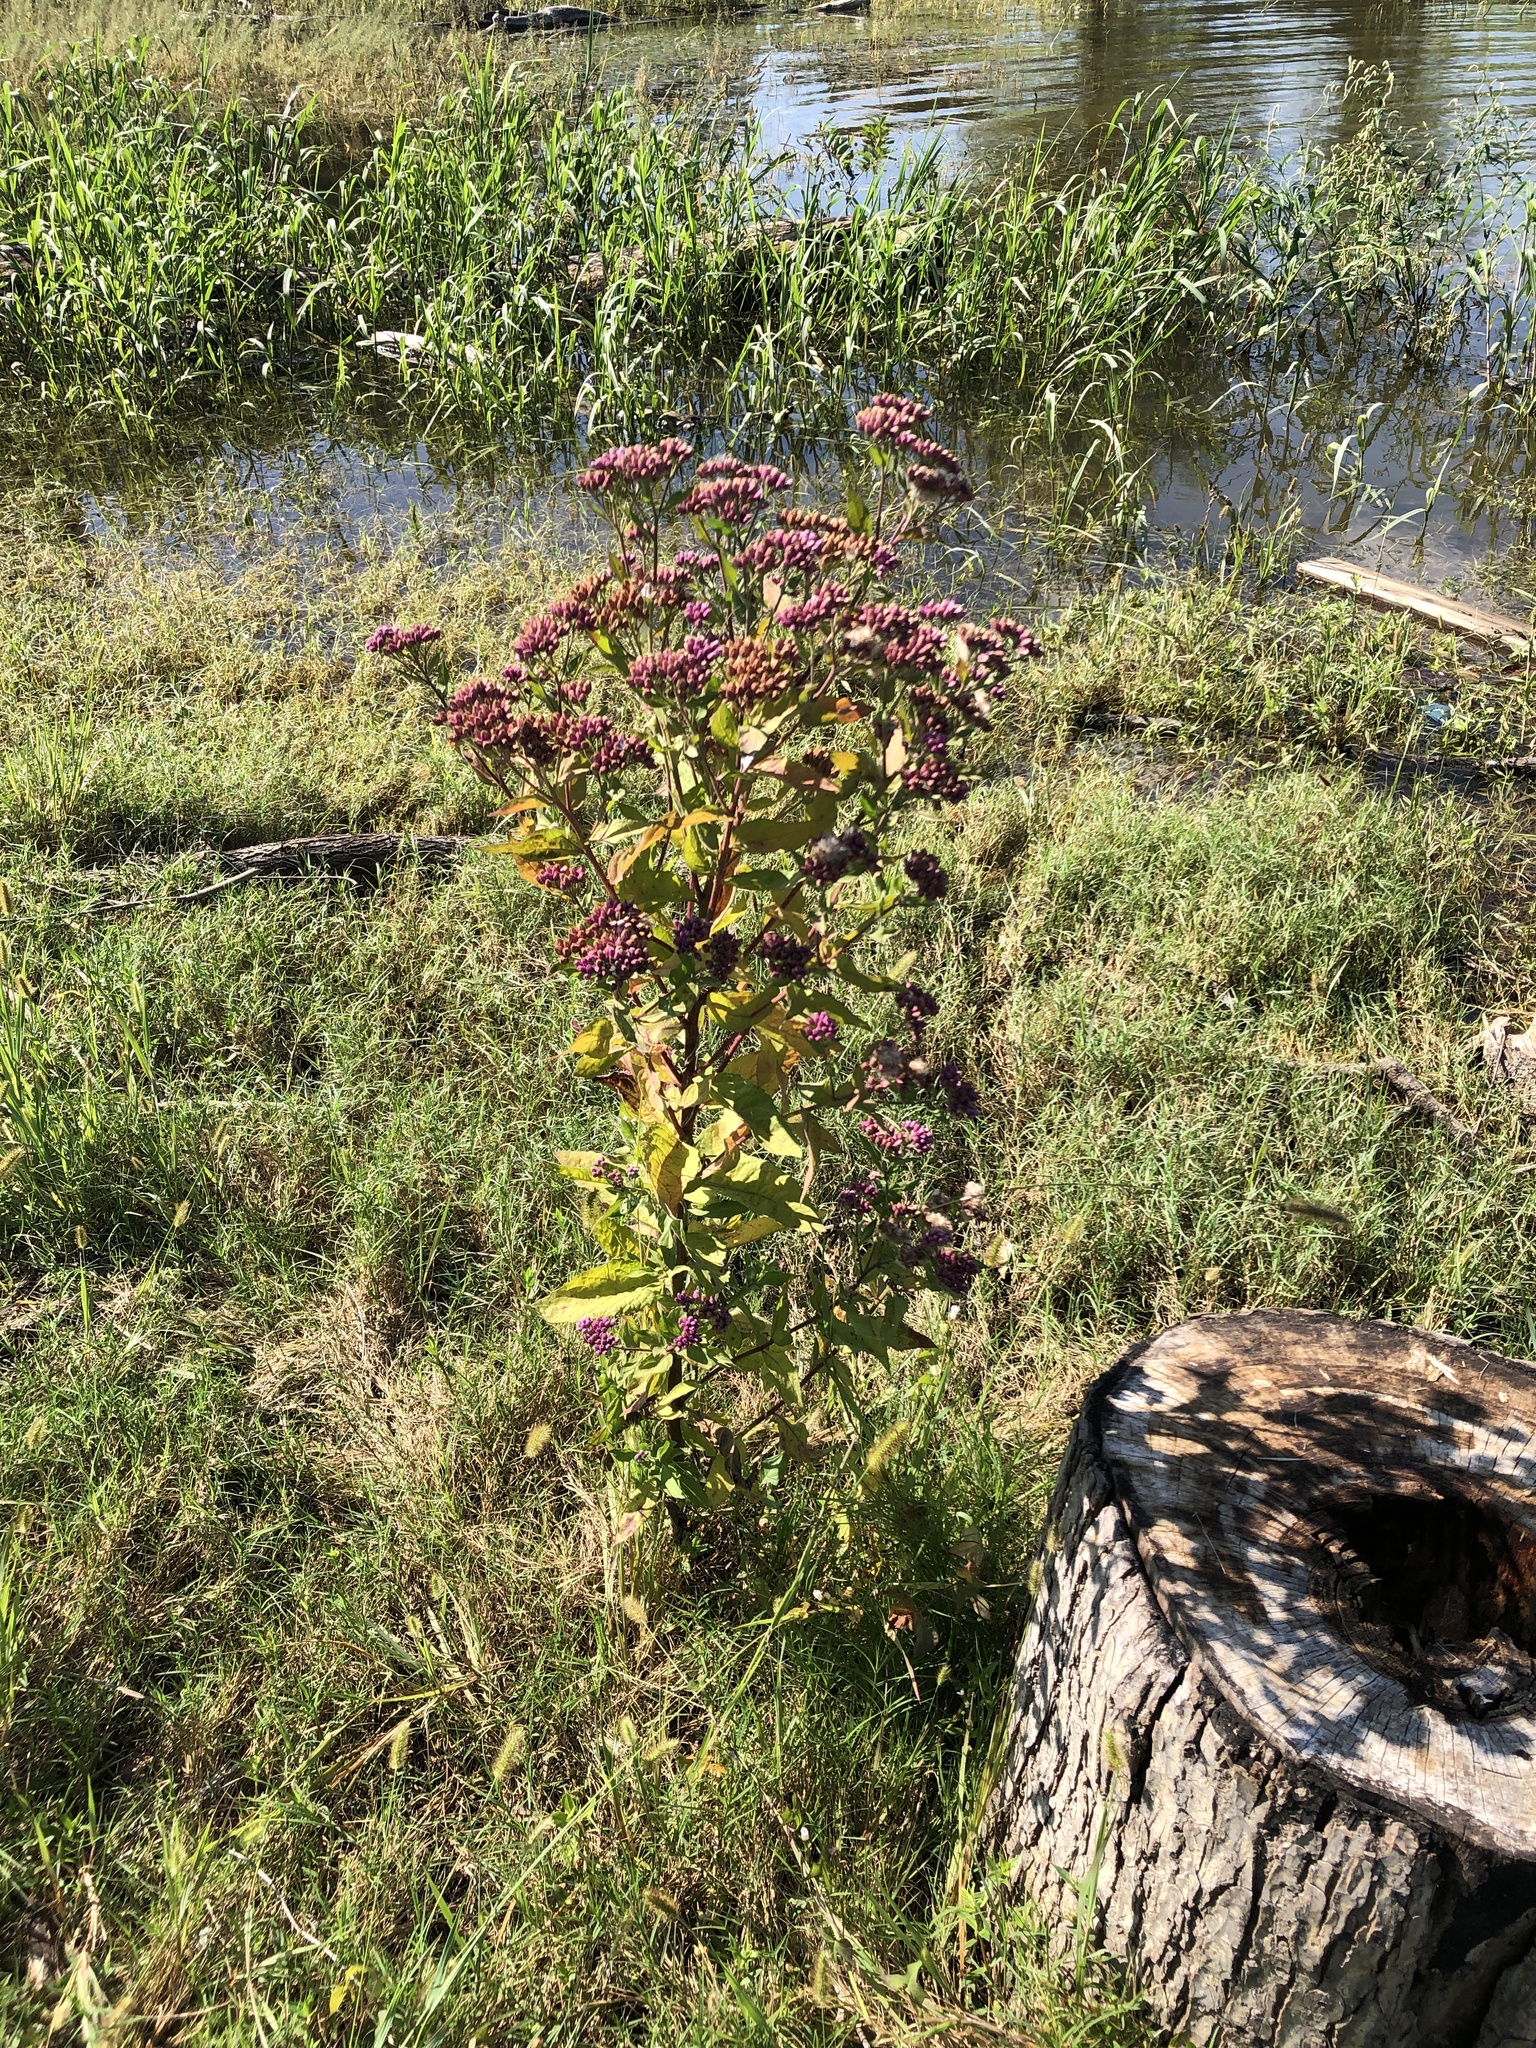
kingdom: Plantae
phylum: Tracheophyta
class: Magnoliopsida
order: Asterales
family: Asteraceae
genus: Pluchea
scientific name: Pluchea odorata
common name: Saltmarsh fleabane
